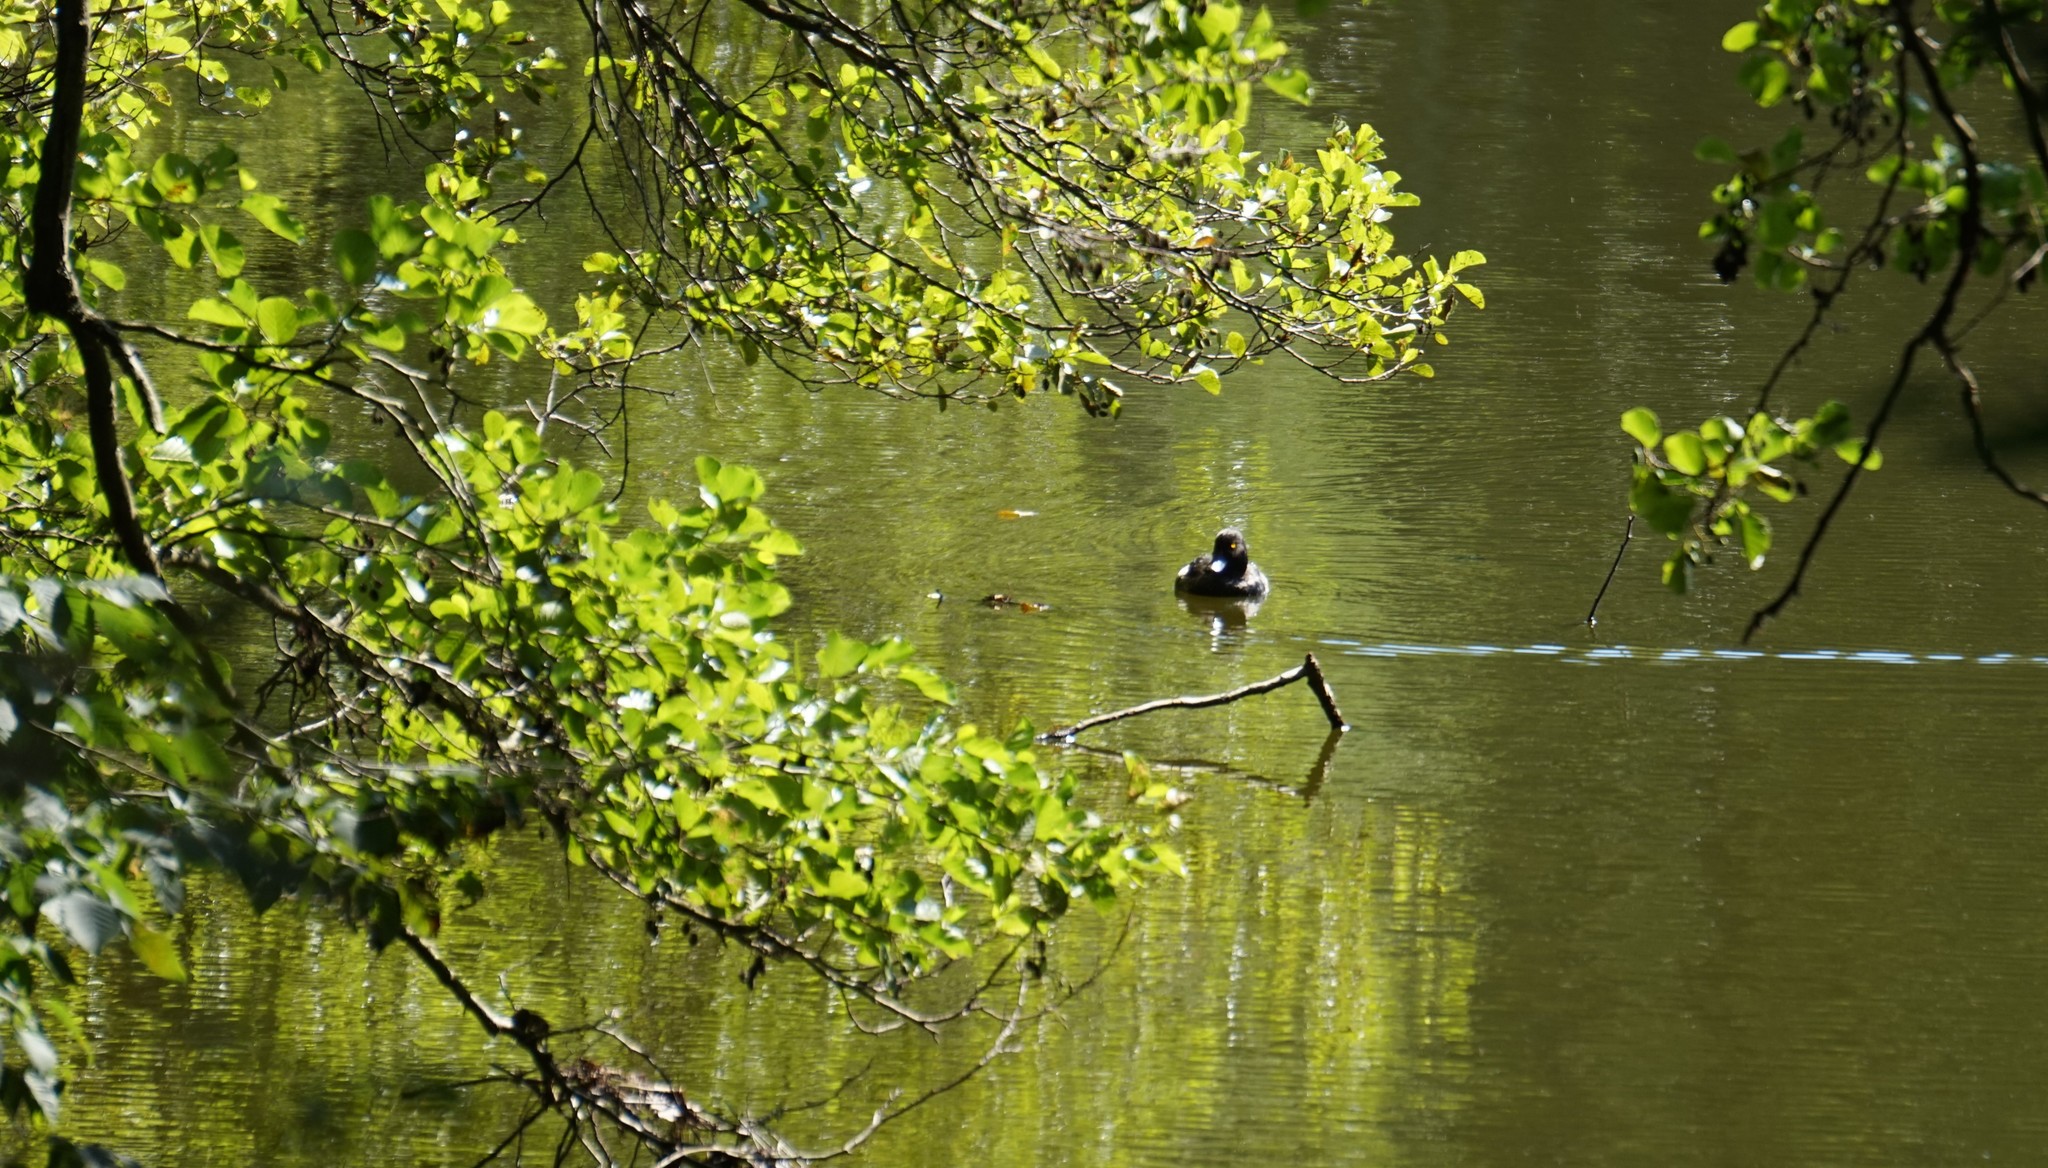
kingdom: Animalia
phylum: Chordata
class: Aves
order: Anseriformes
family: Anatidae
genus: Aythya
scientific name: Aythya fuligula
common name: Tufted duck
